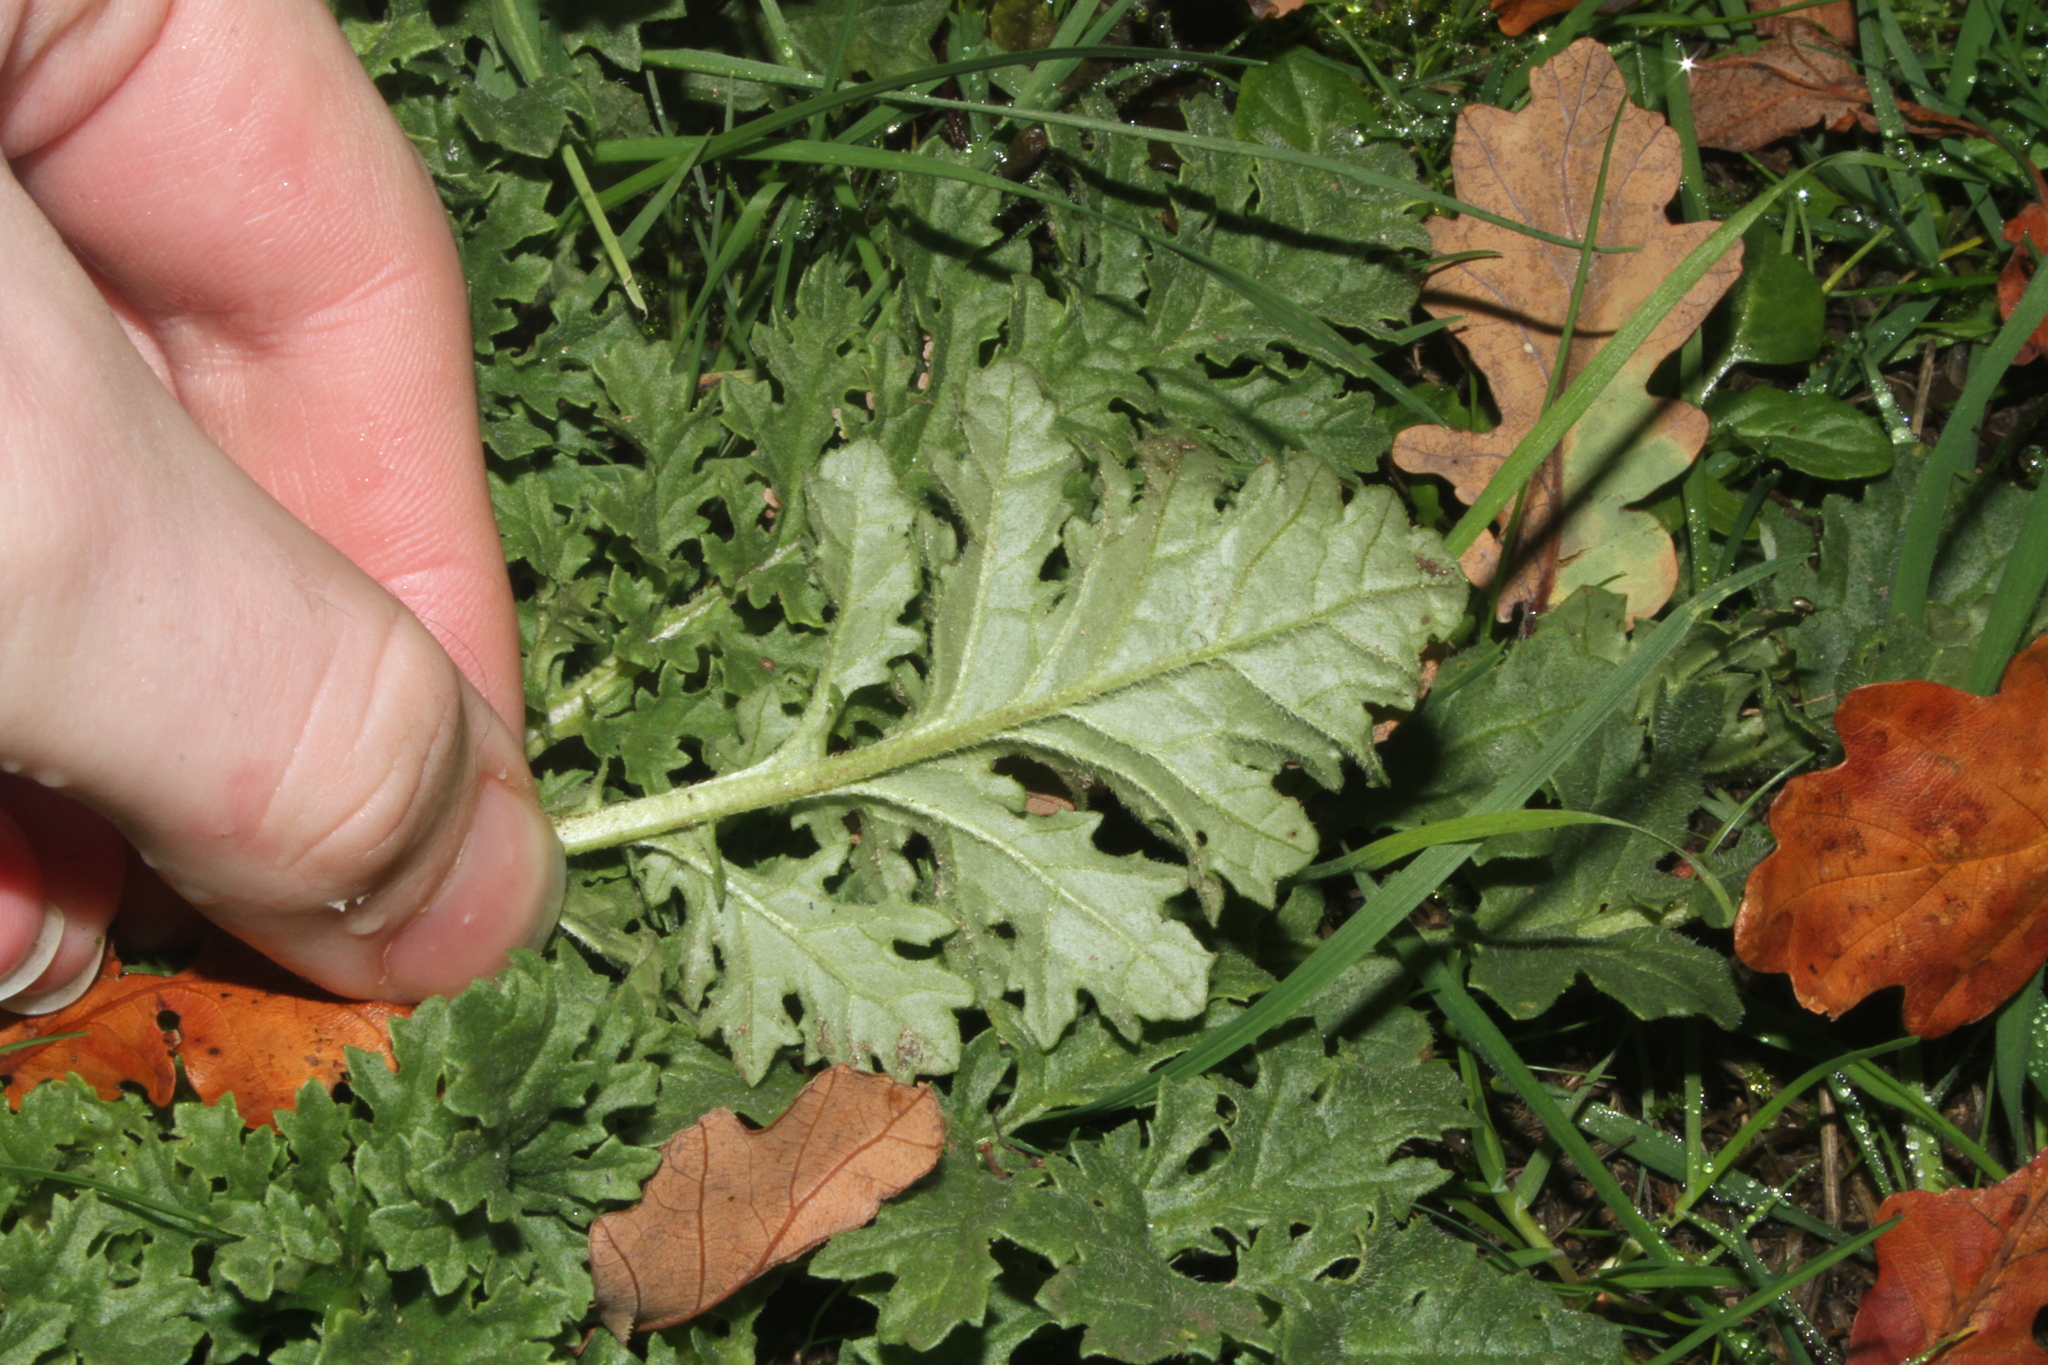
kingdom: Plantae
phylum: Tracheophyta
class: Magnoliopsida
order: Asterales
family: Asteraceae
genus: Jacobaea
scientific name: Jacobaea vulgaris
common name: Stinking willie
